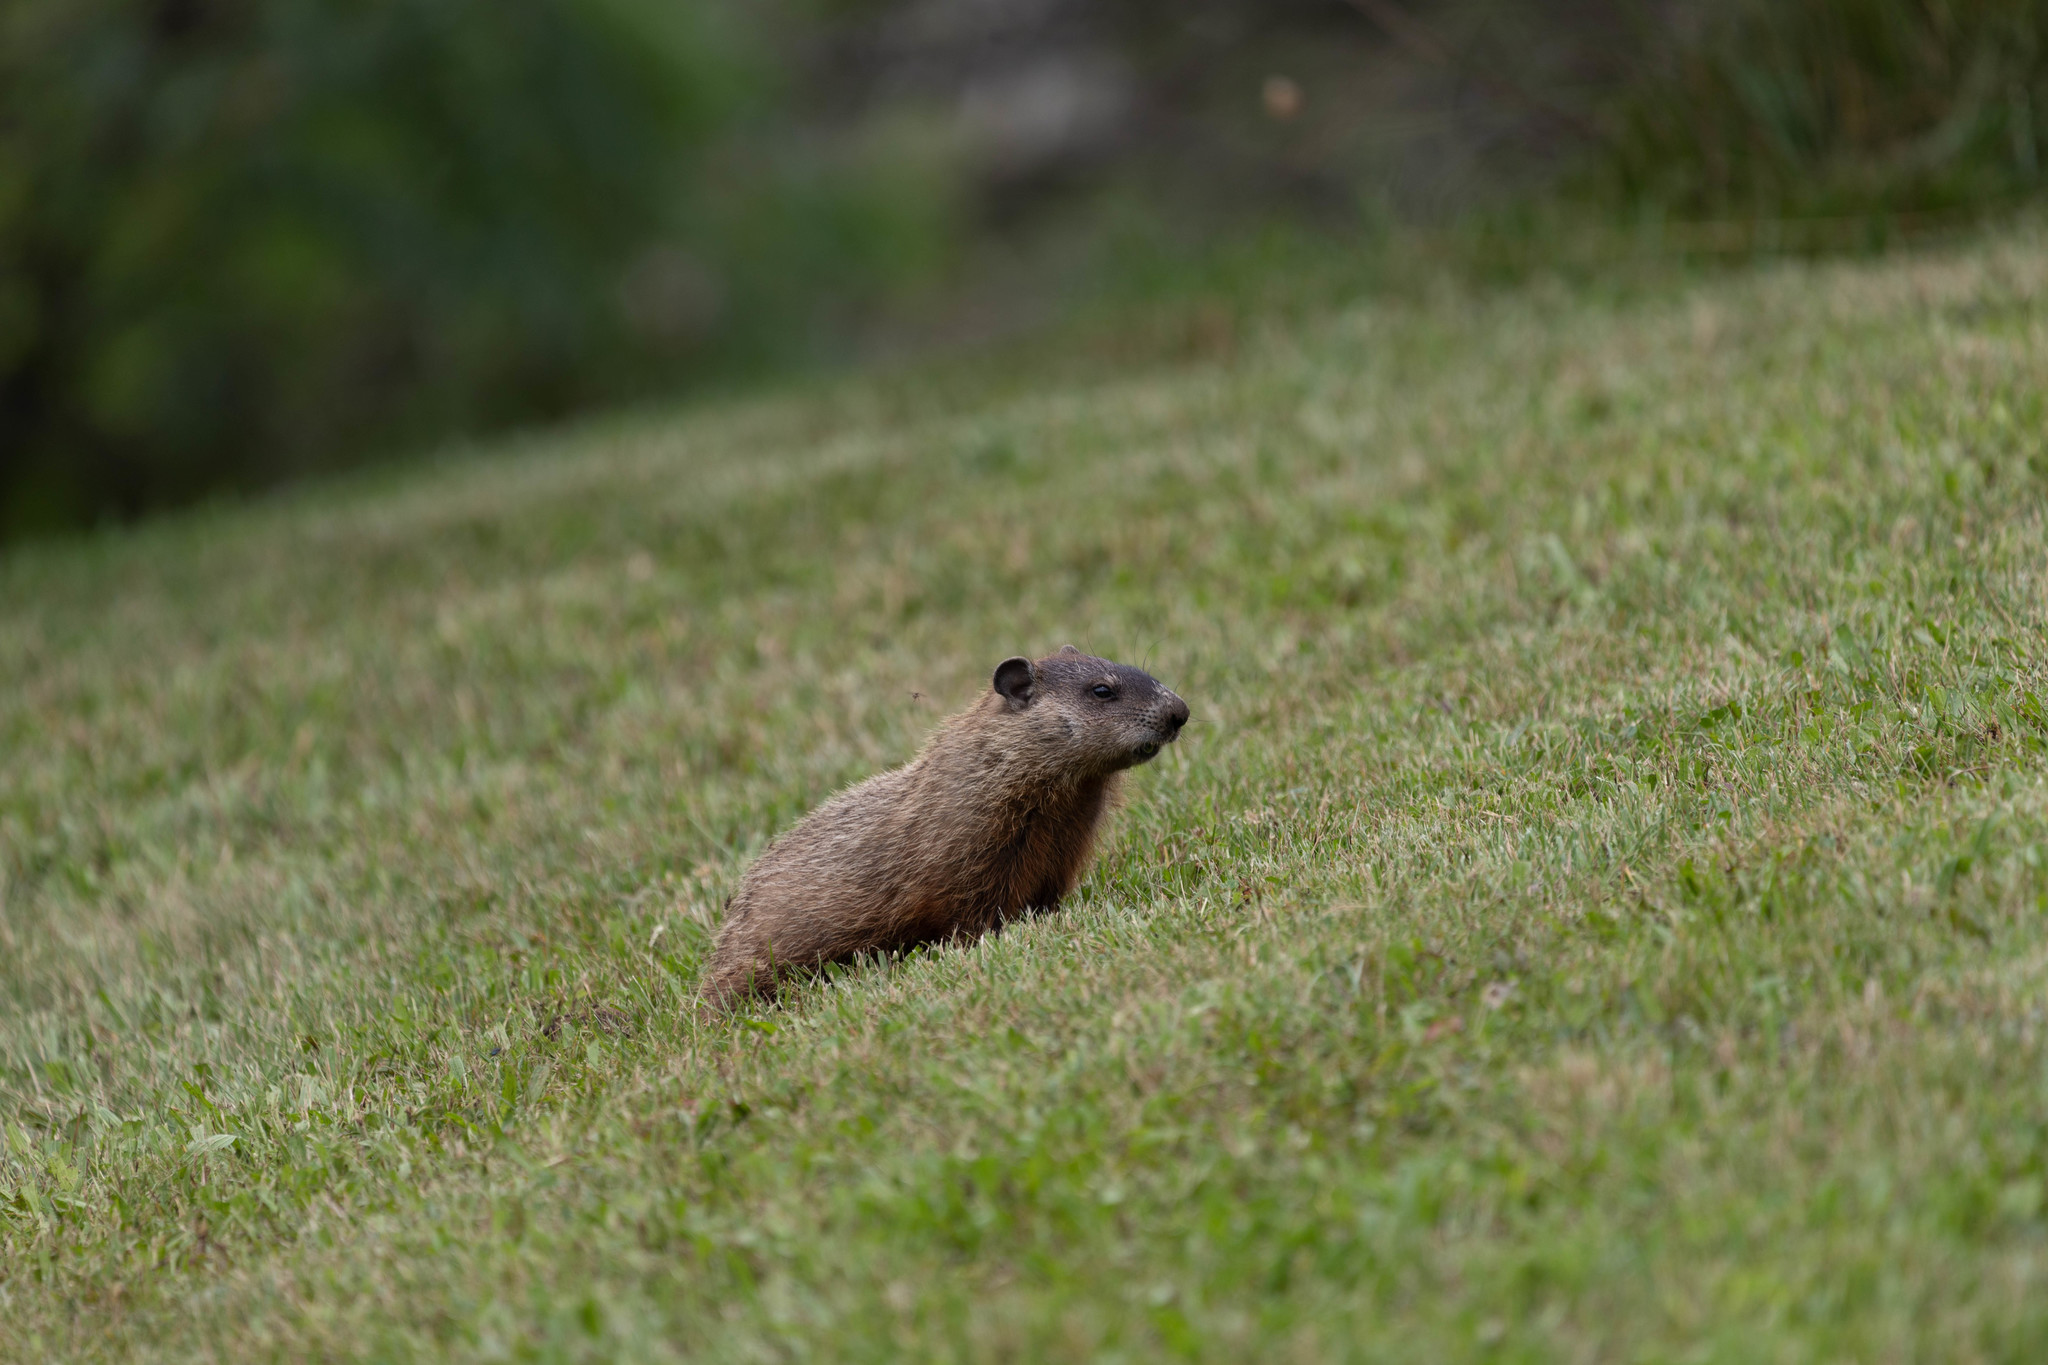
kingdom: Animalia
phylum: Chordata
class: Mammalia
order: Rodentia
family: Sciuridae
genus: Marmota
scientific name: Marmota monax
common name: Groundhog
